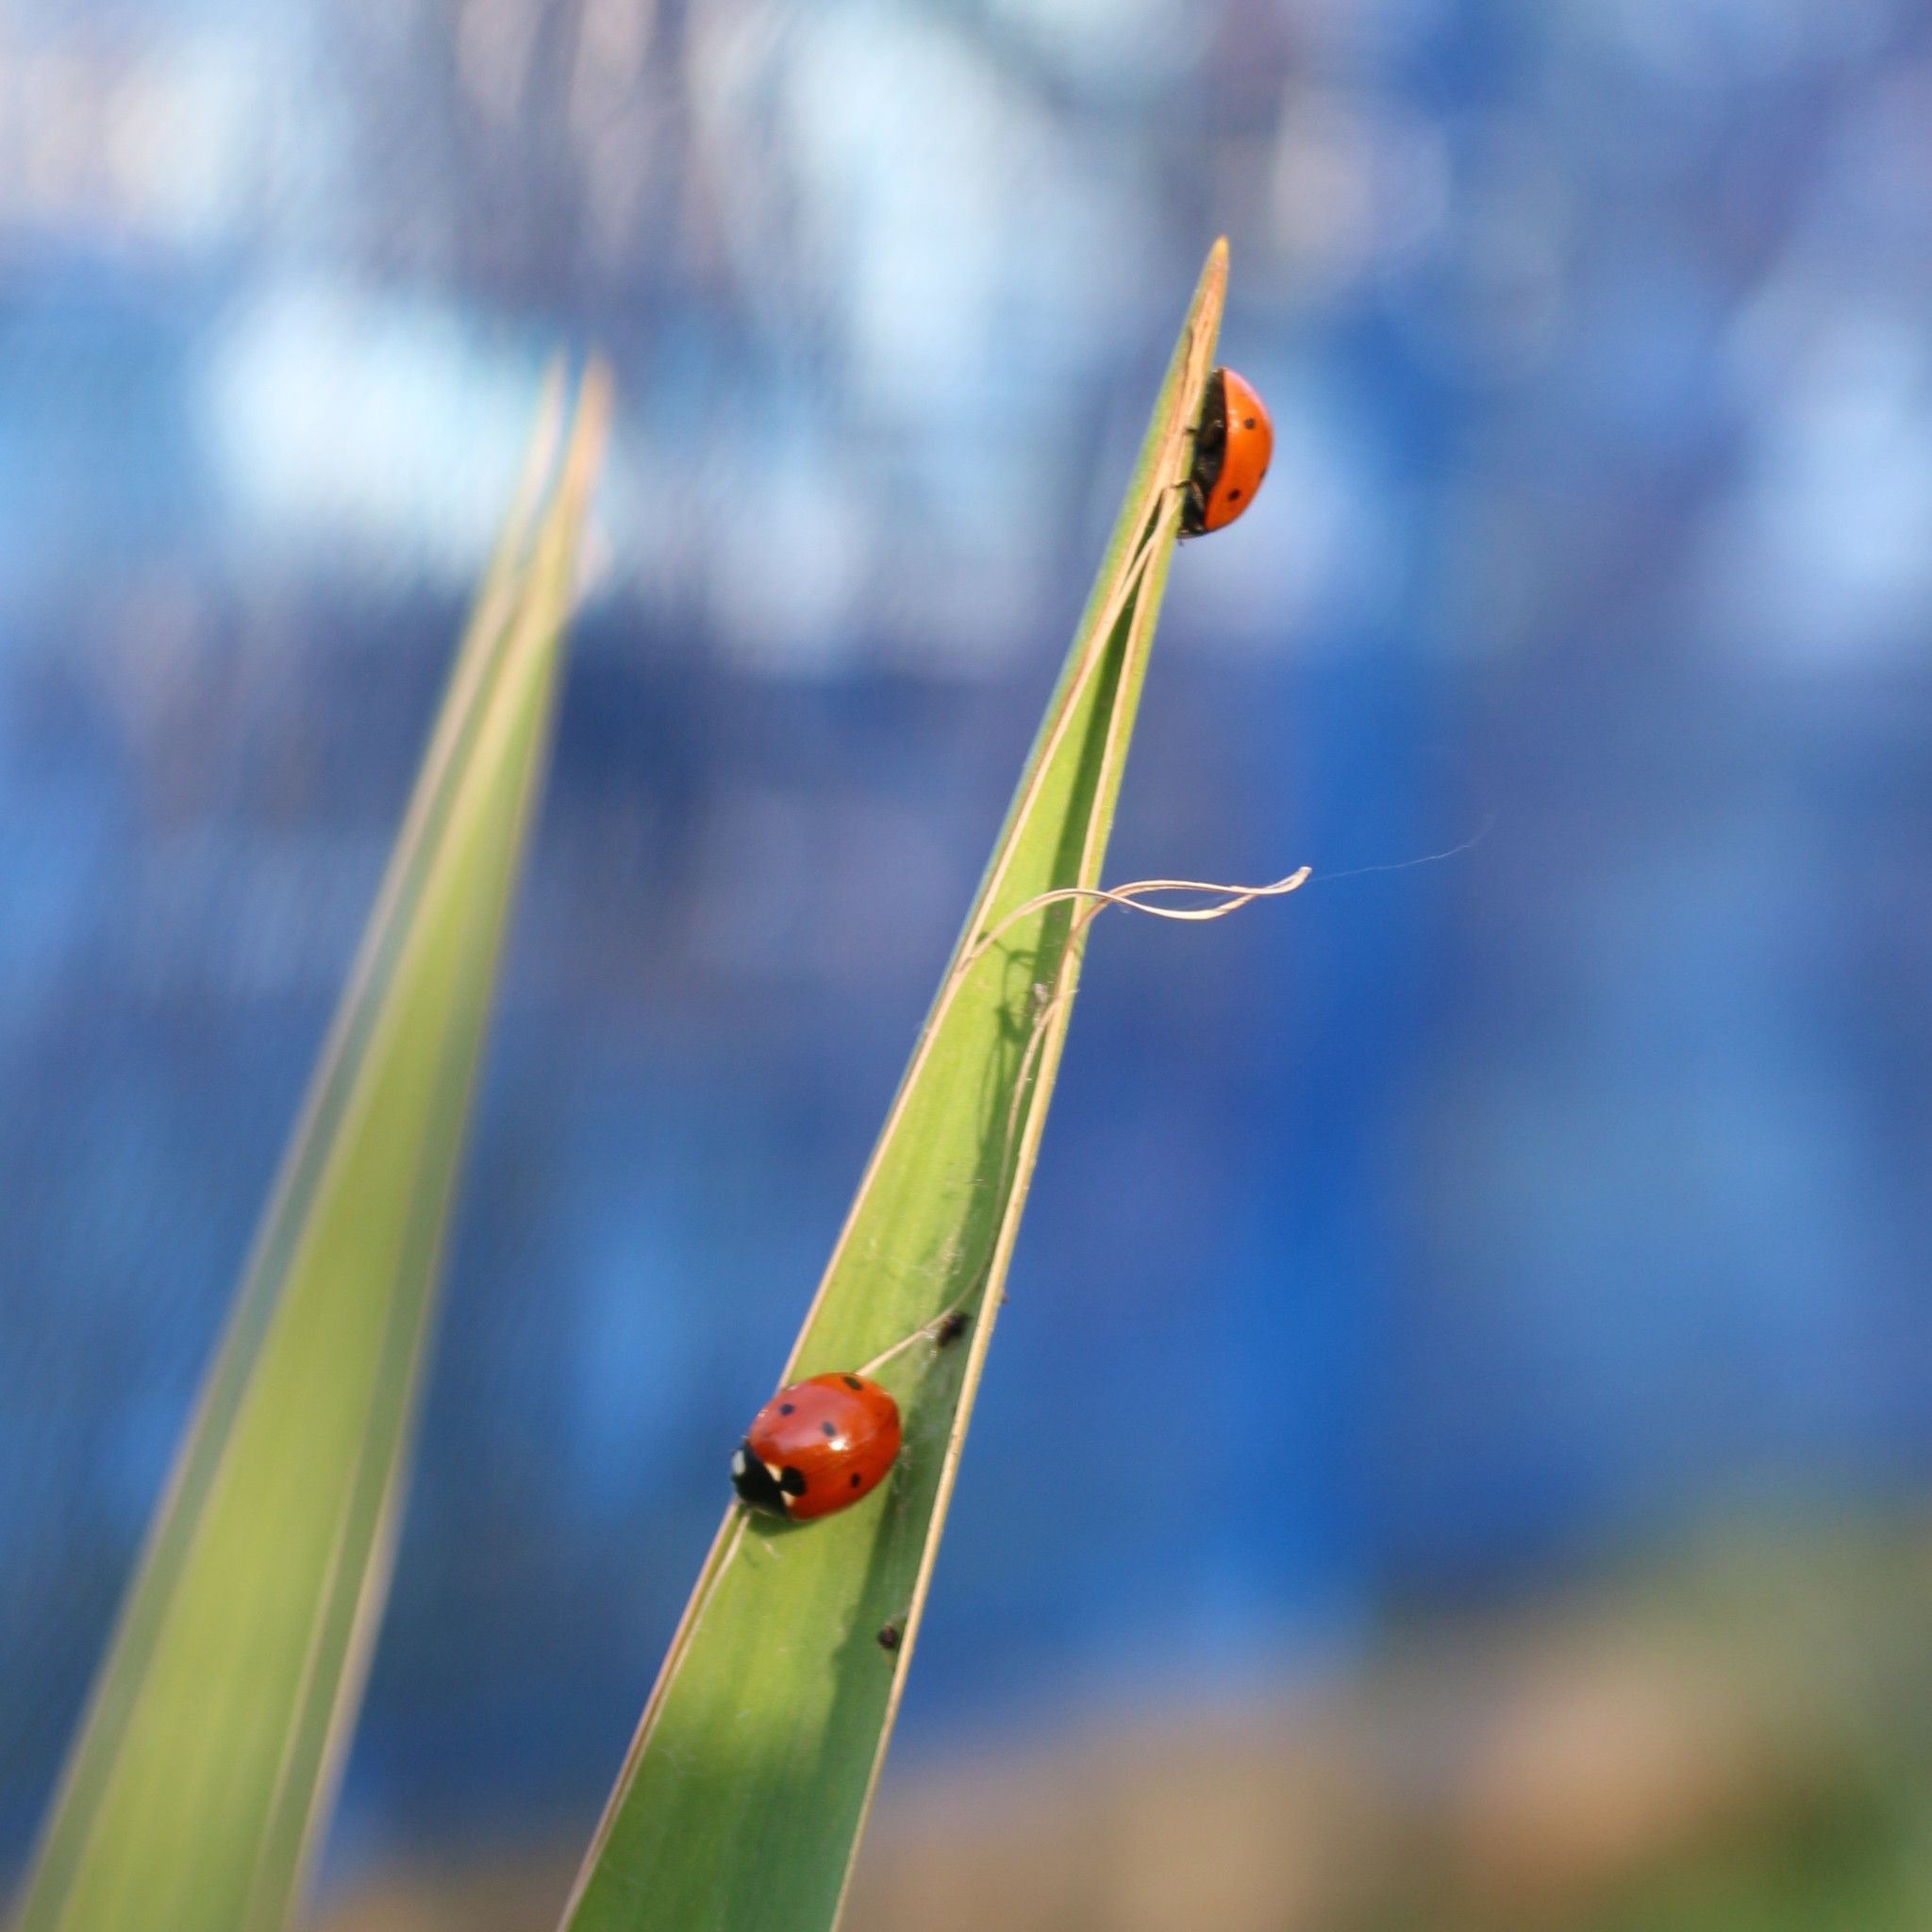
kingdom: Animalia
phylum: Arthropoda
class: Insecta
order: Coleoptera
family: Coccinellidae
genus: Coccinella
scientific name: Coccinella septempunctata
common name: Sevenspotted lady beetle
